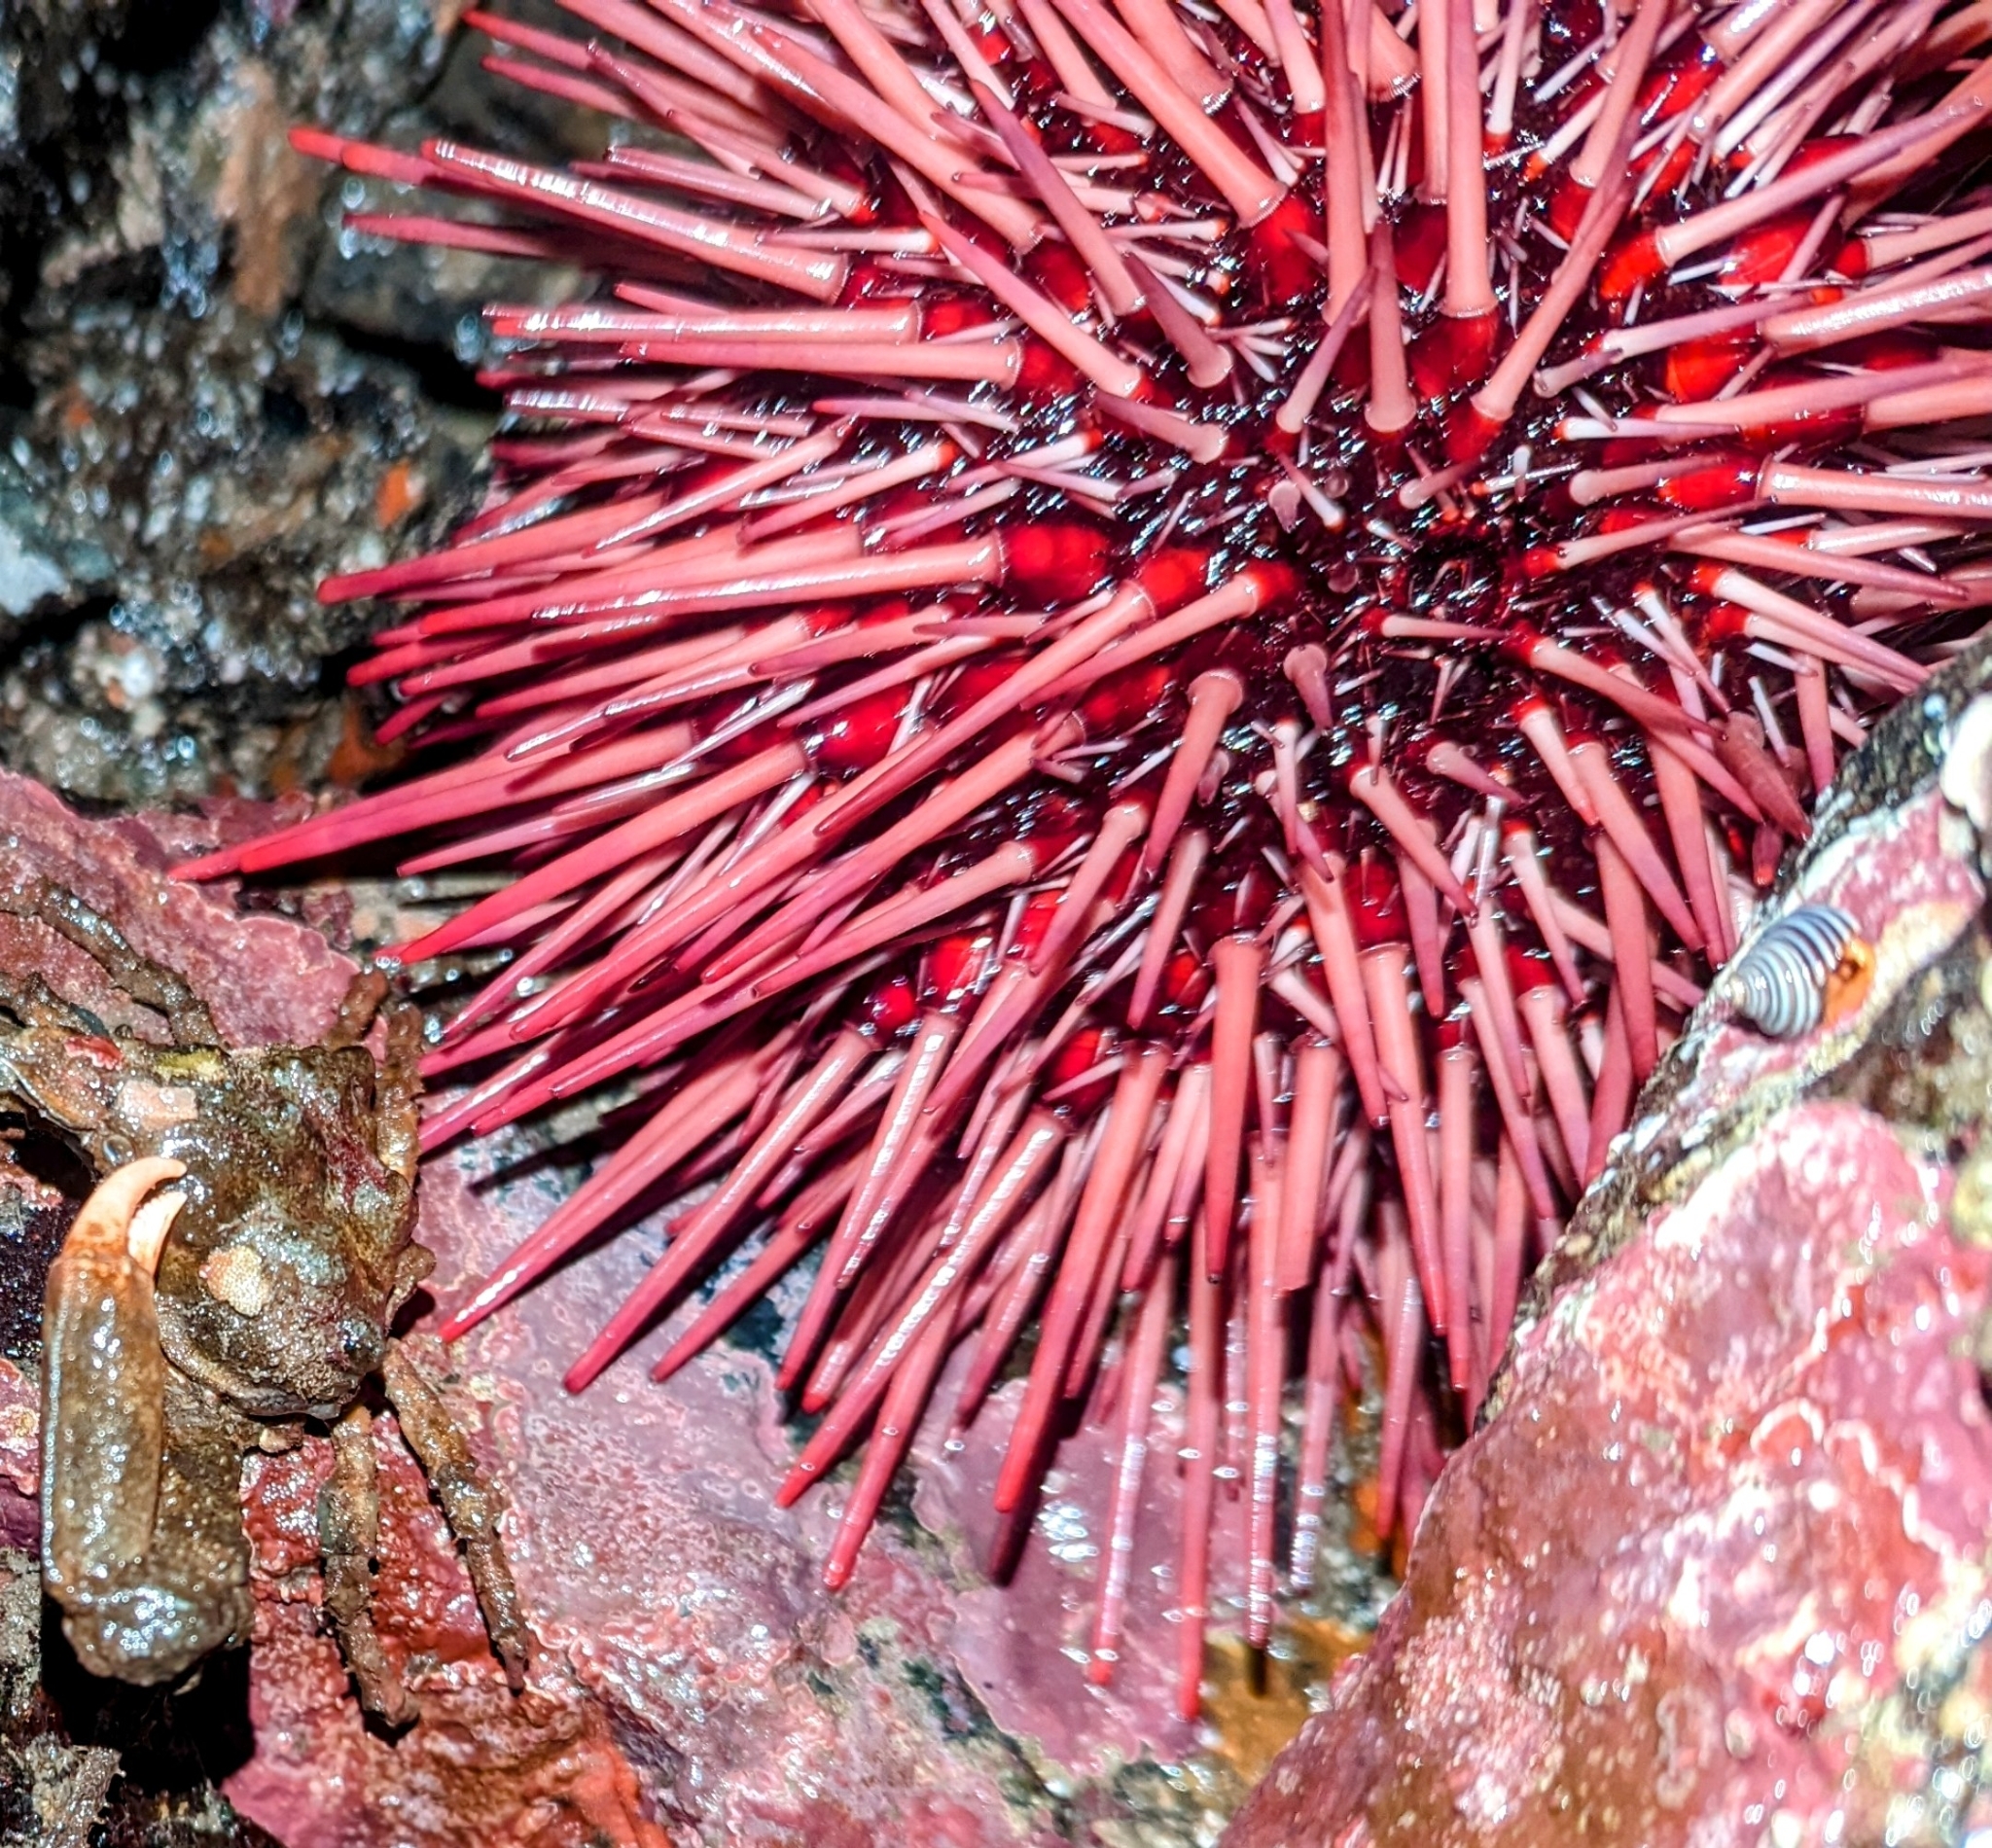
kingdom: Animalia
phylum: Echinodermata
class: Echinoidea
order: Camarodonta
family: Strongylocentrotidae
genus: Mesocentrotus
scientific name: Mesocentrotus franciscanus
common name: Red sea urchin
